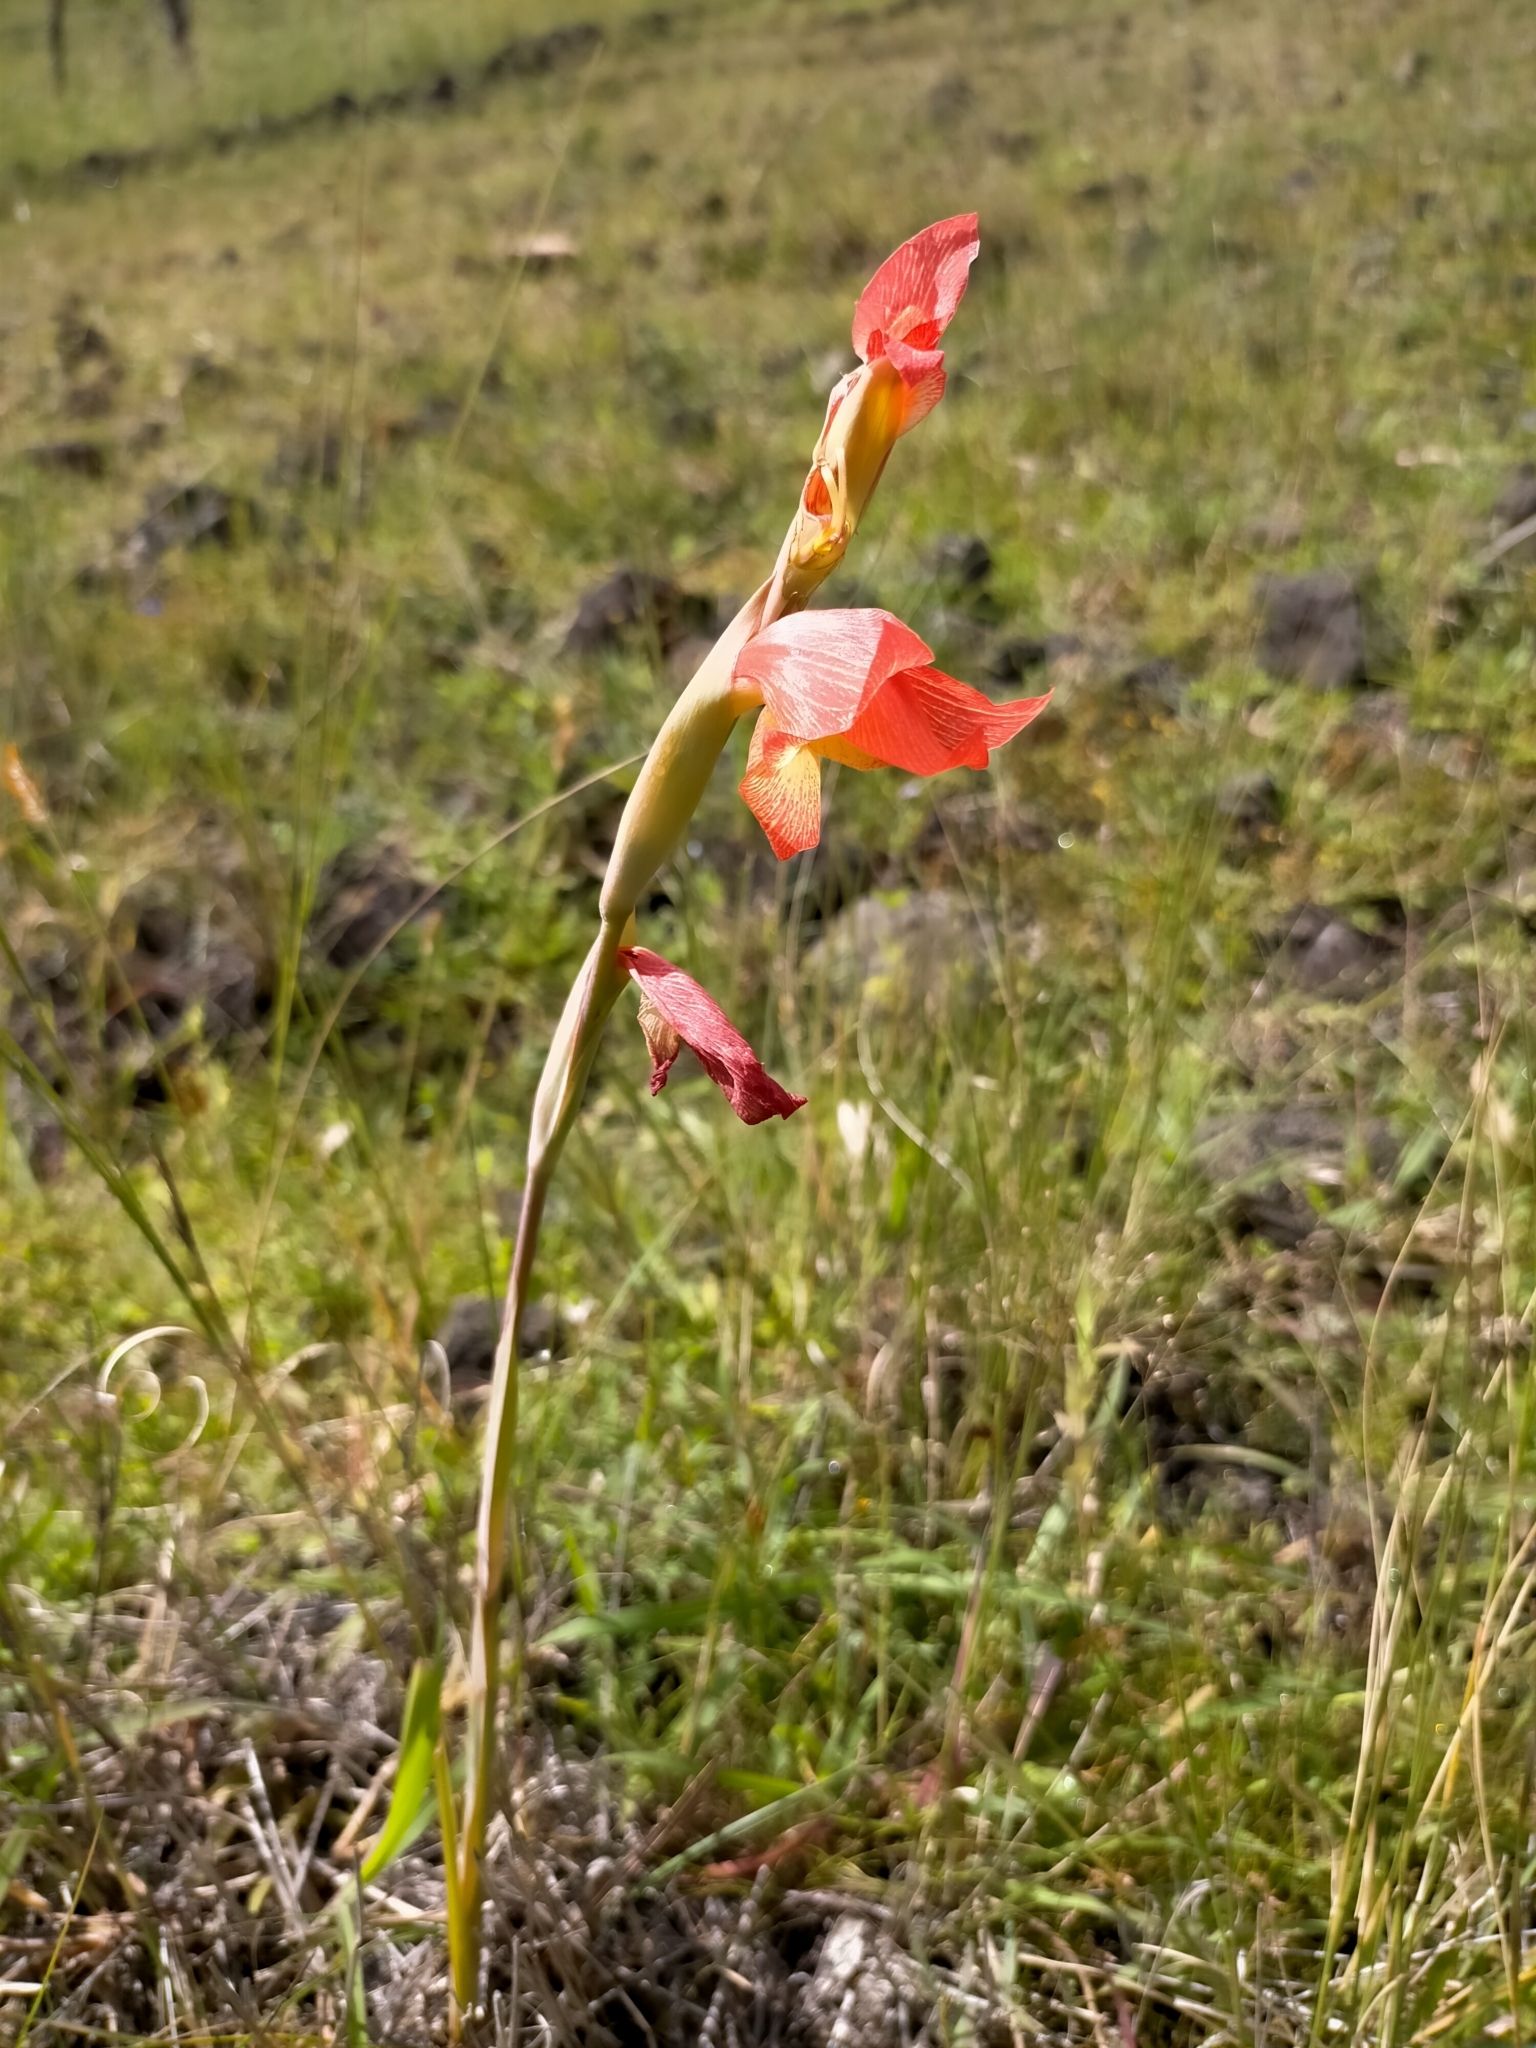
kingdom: Plantae
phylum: Tracheophyta
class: Liliopsida
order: Asparagales
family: Iridaceae
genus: Gladiolus
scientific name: Gladiolus dalenii
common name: Cornflag
